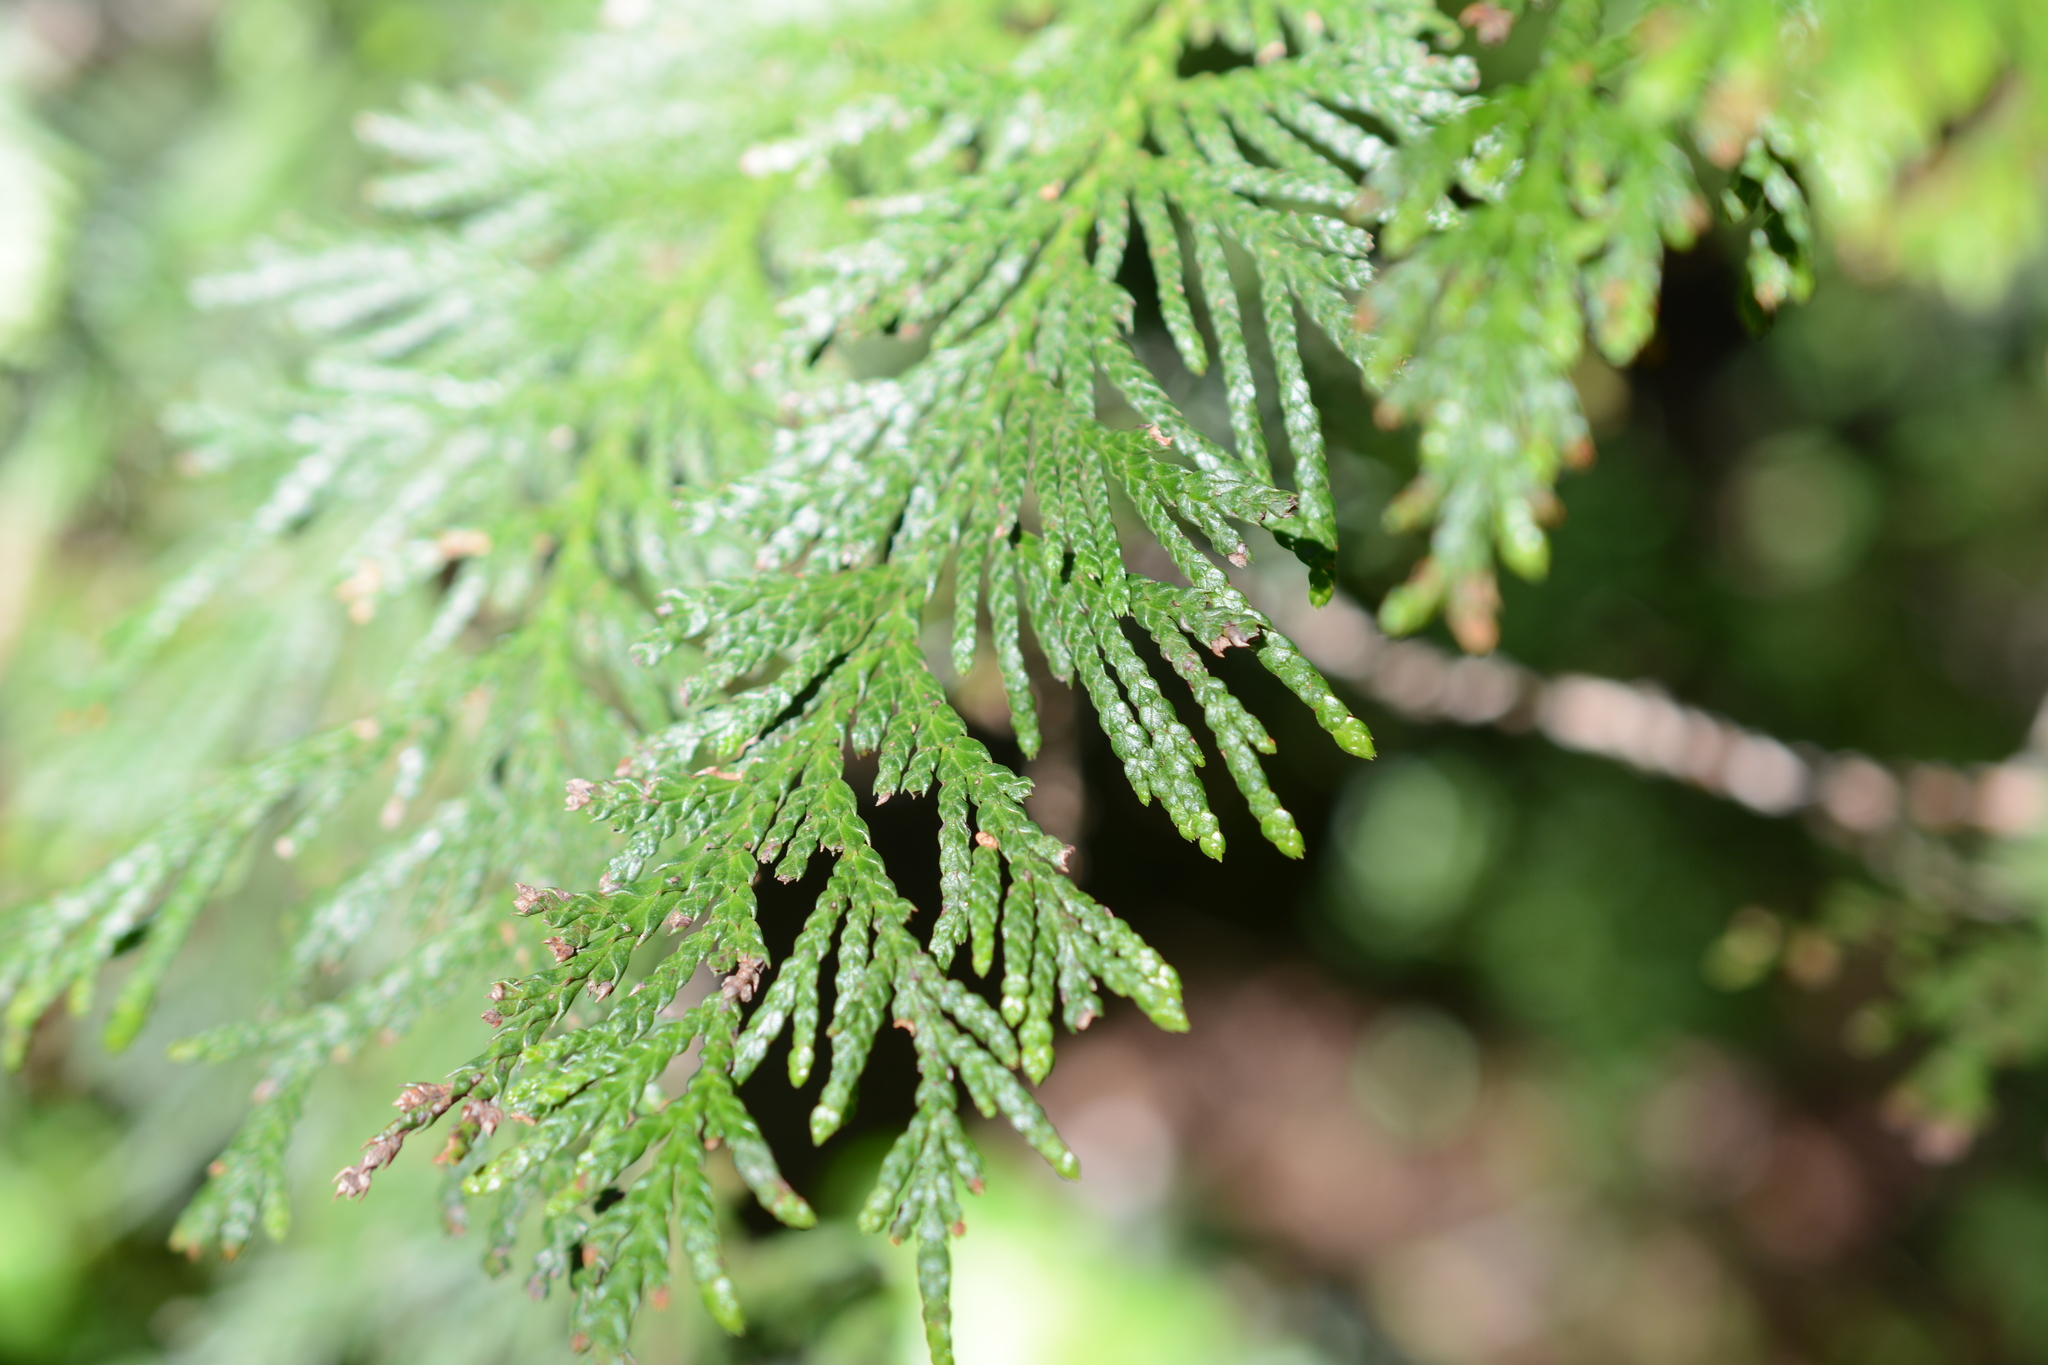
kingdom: Plantae
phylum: Tracheophyta
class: Pinopsida
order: Pinales
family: Cupressaceae
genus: Thuja
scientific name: Thuja plicata
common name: Western red-cedar
